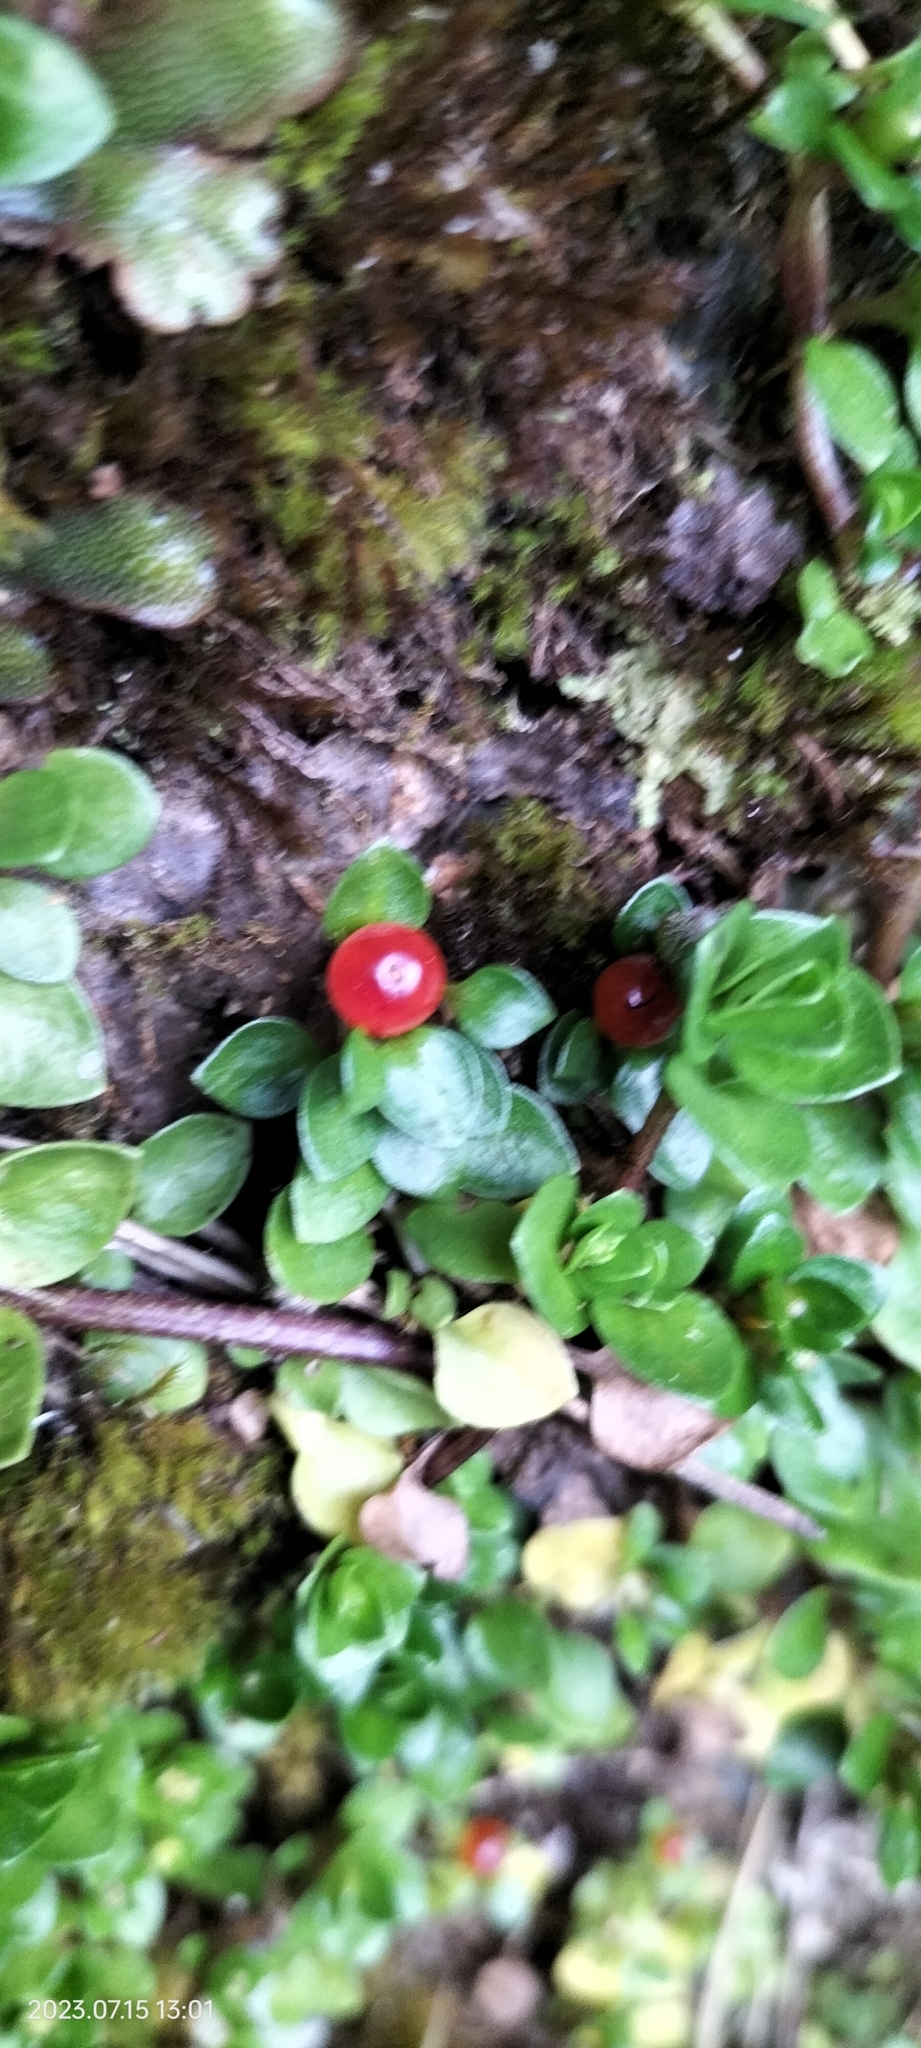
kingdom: Plantae
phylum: Tracheophyta
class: Magnoliopsida
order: Gentianales
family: Rubiaceae
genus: Nertera
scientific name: Nertera granadensis
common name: Beadplant
